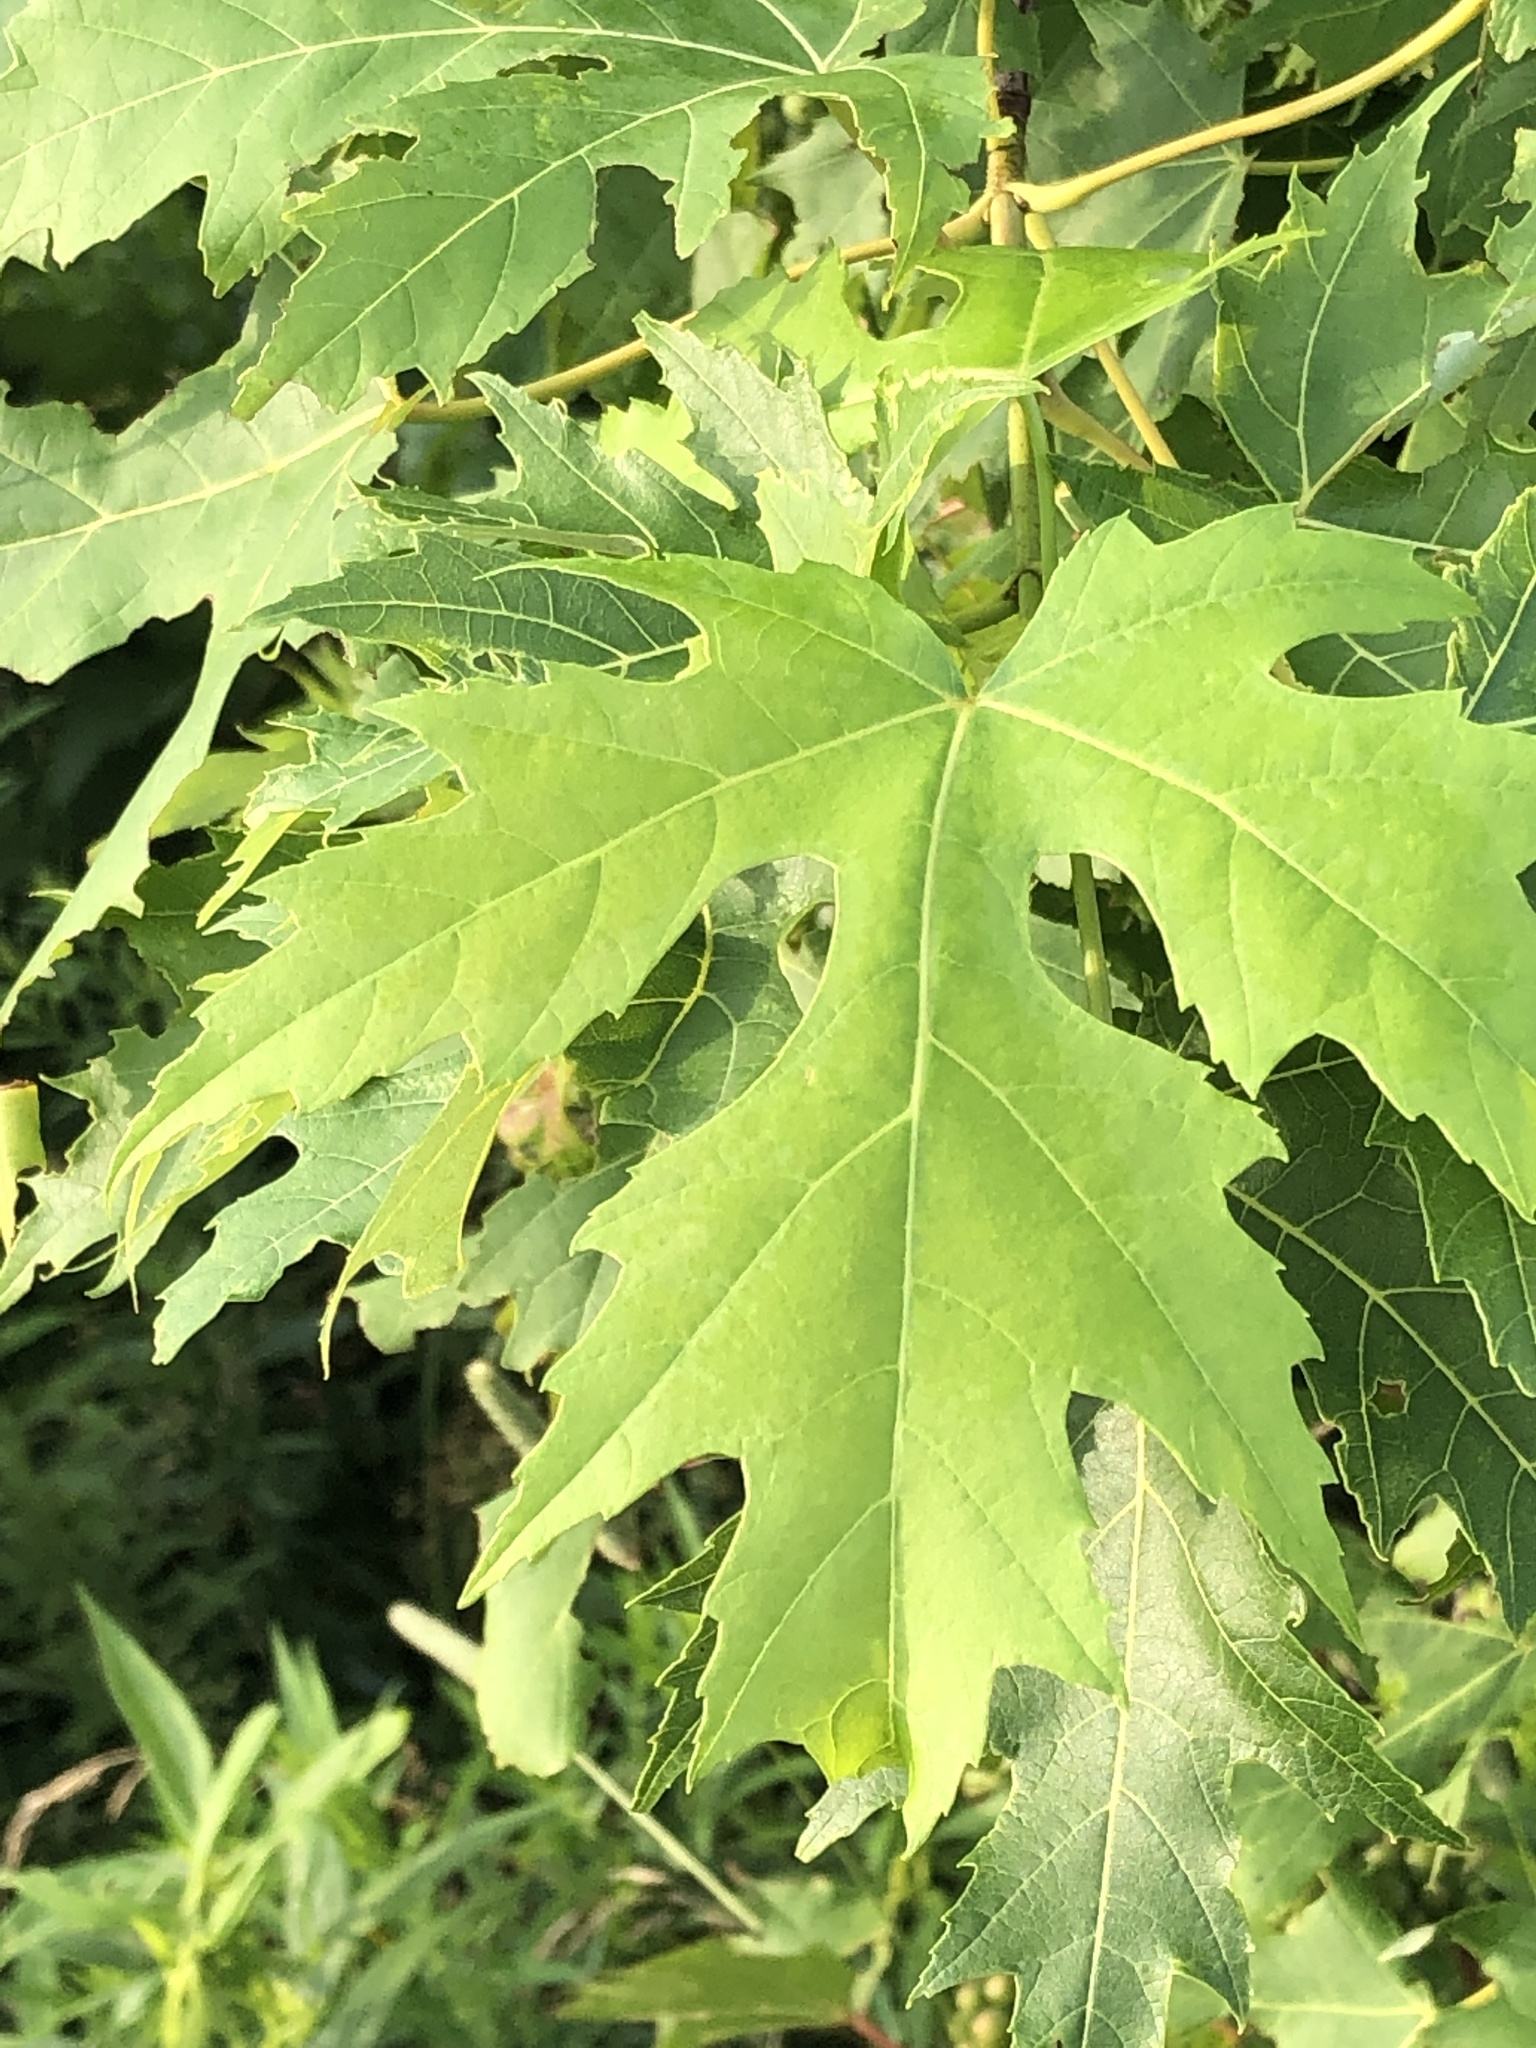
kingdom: Plantae
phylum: Tracheophyta
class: Magnoliopsida
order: Sapindales
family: Sapindaceae
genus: Acer
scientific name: Acer saccharinum
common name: Silver maple
